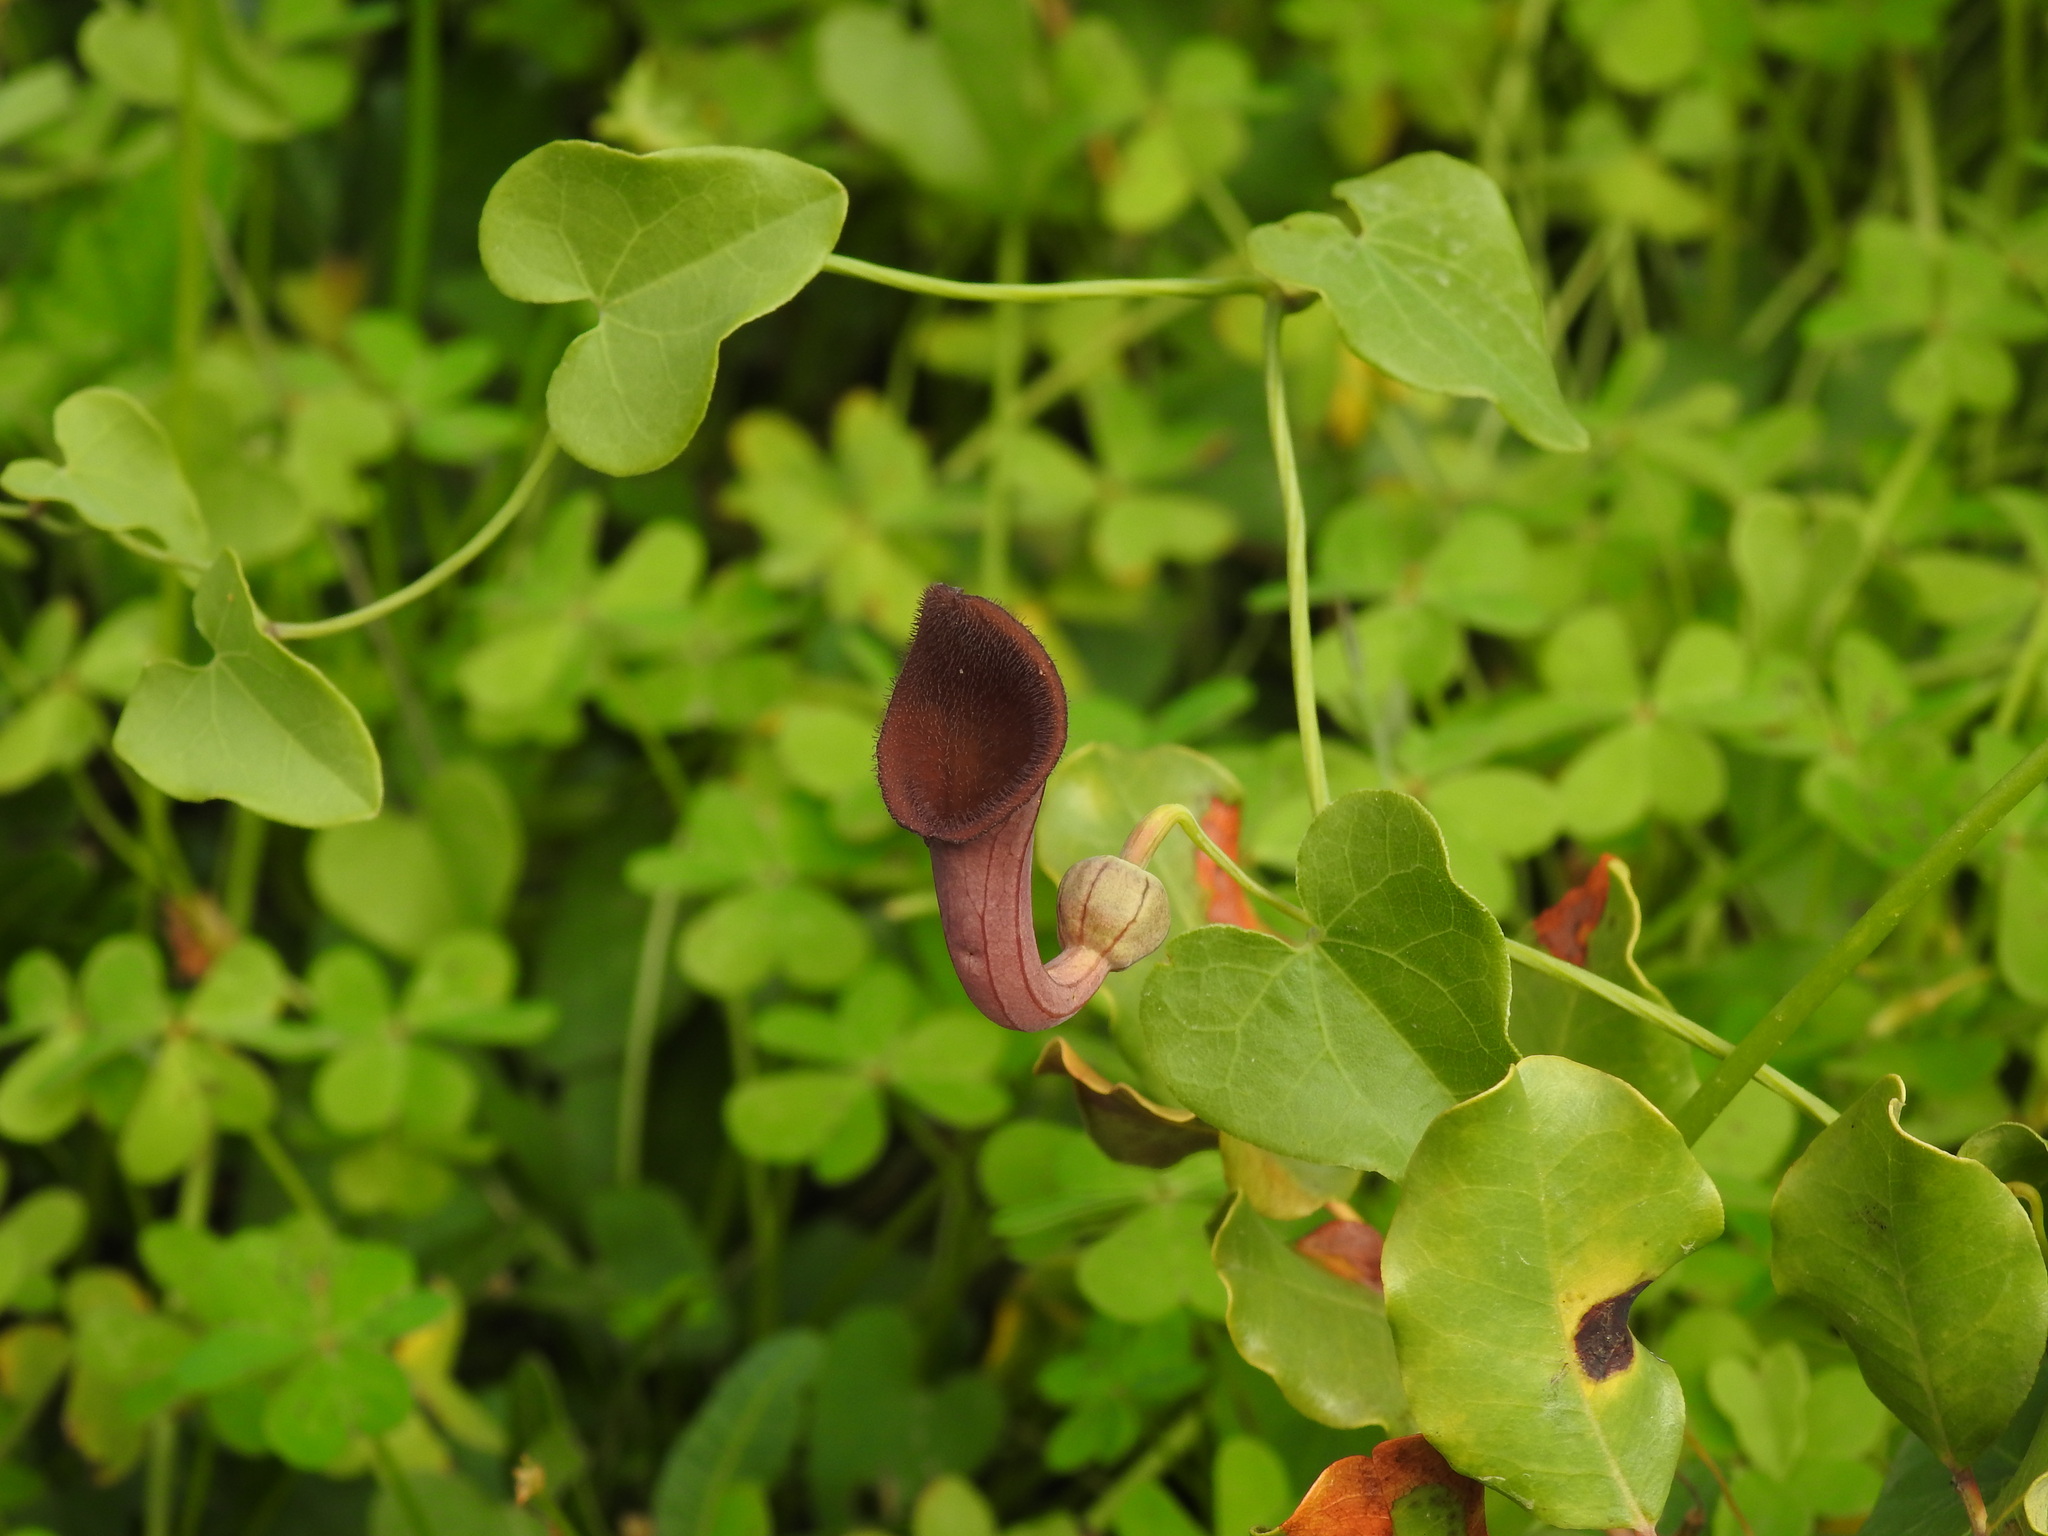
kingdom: Plantae
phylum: Tracheophyta
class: Magnoliopsida
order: Piperales
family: Aristolochiaceae
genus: Aristolochia
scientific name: Aristolochia baetica
